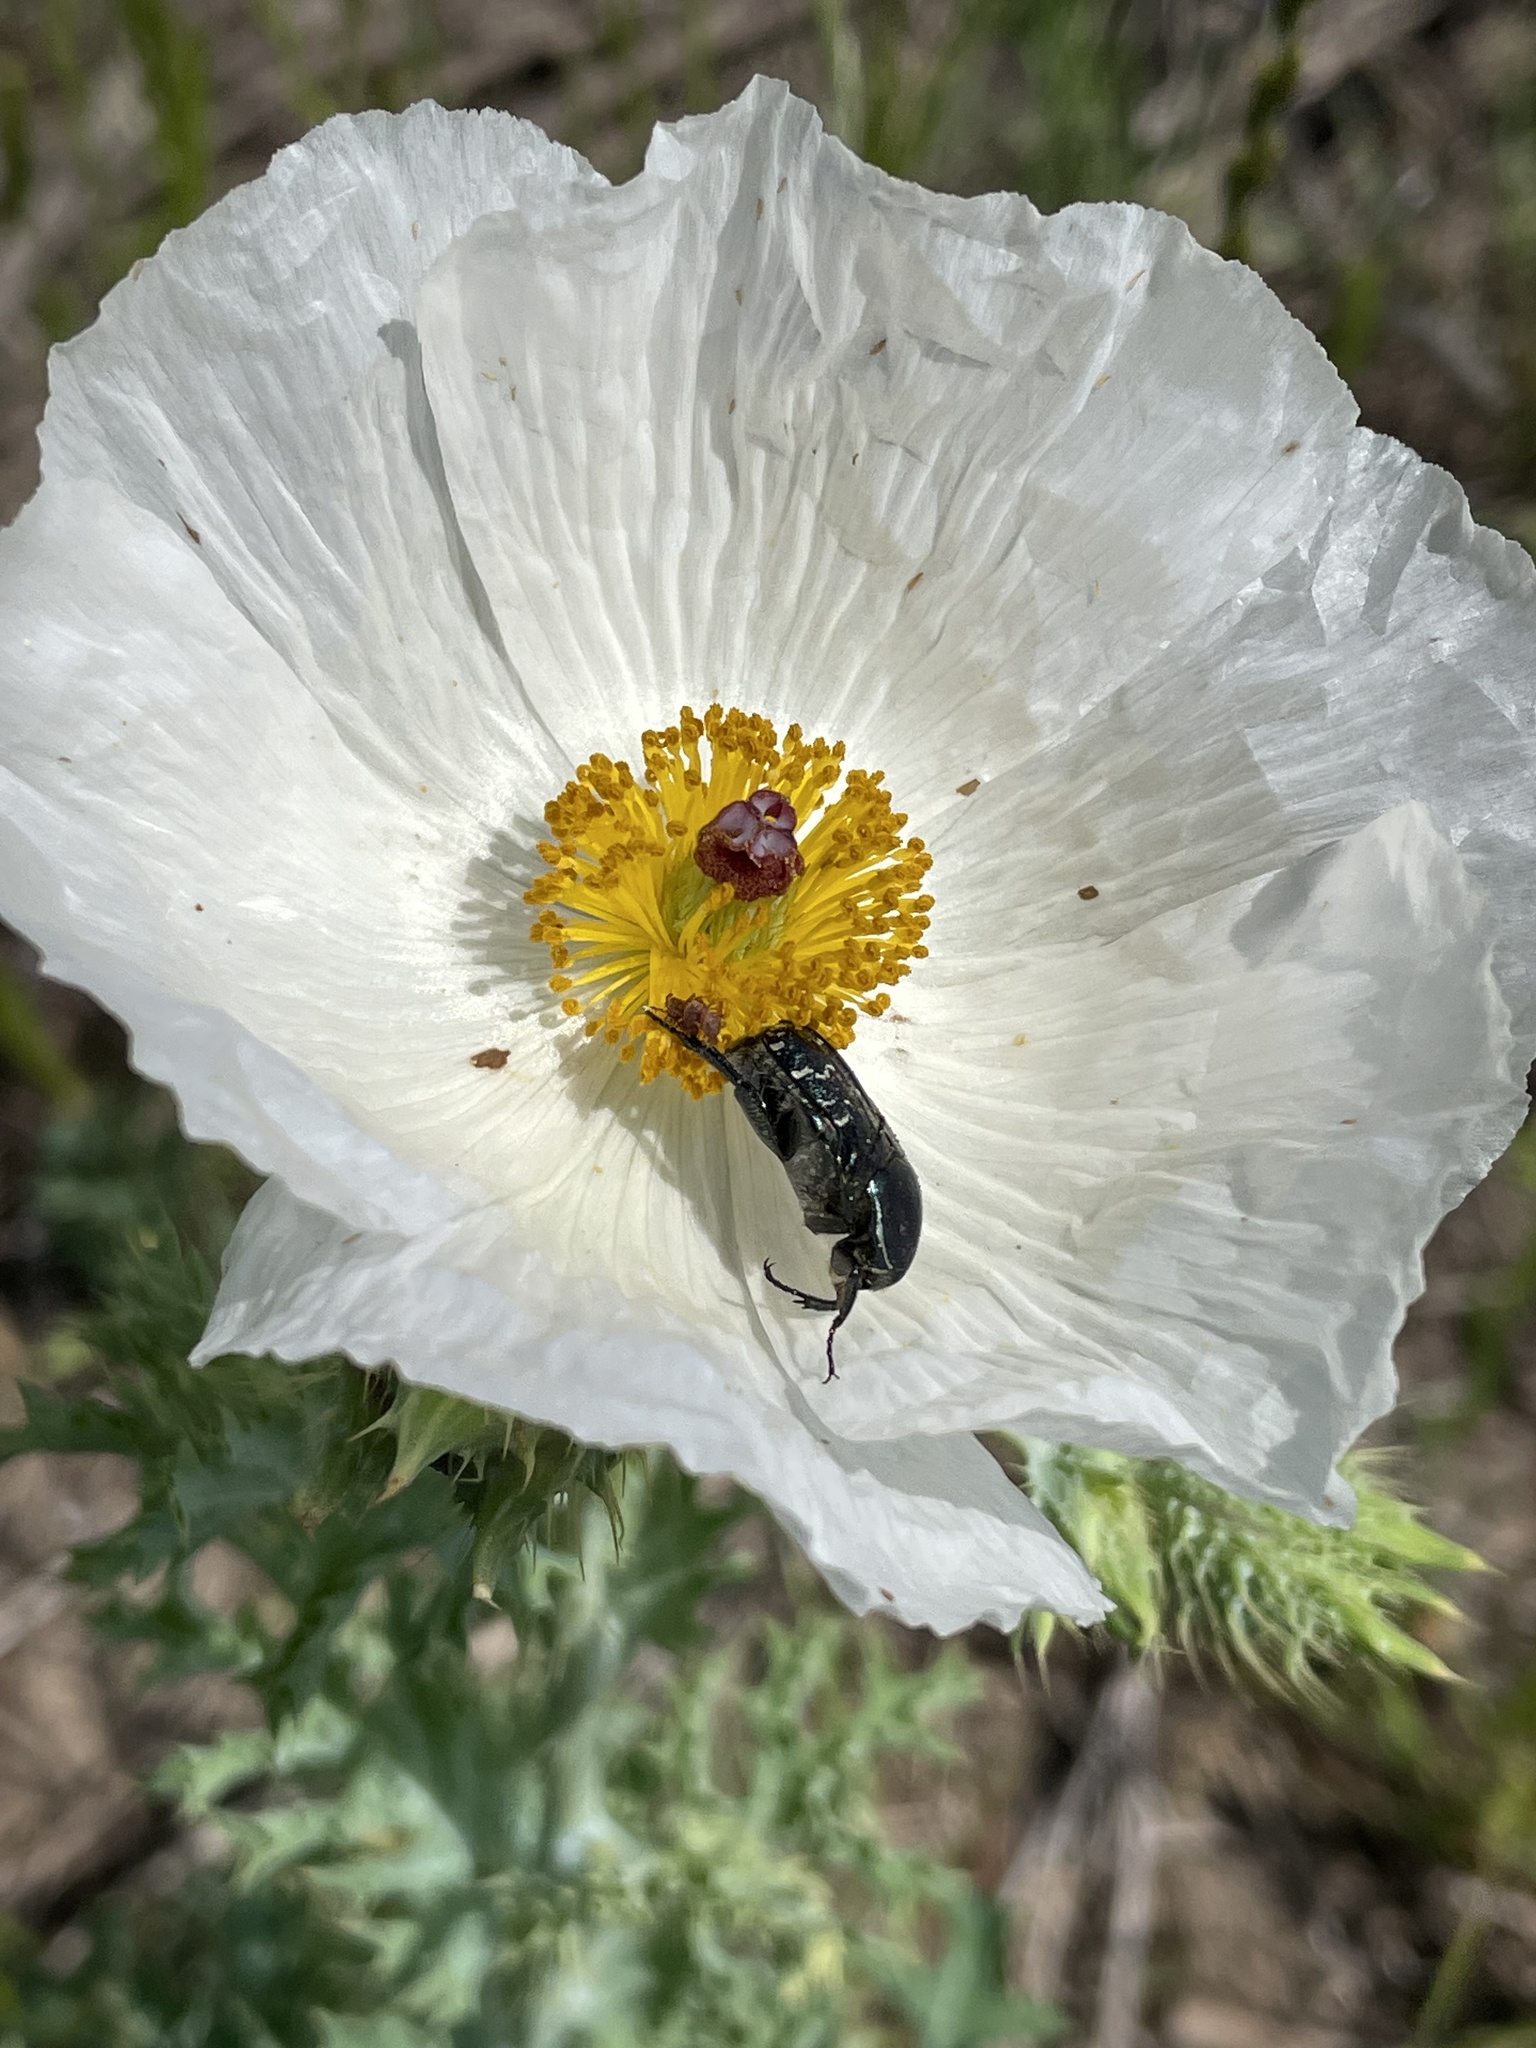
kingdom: Plantae
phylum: Tracheophyta
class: Magnoliopsida
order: Ranunculales
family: Papaveraceae
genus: Argemone
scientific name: Argemone albiflora
